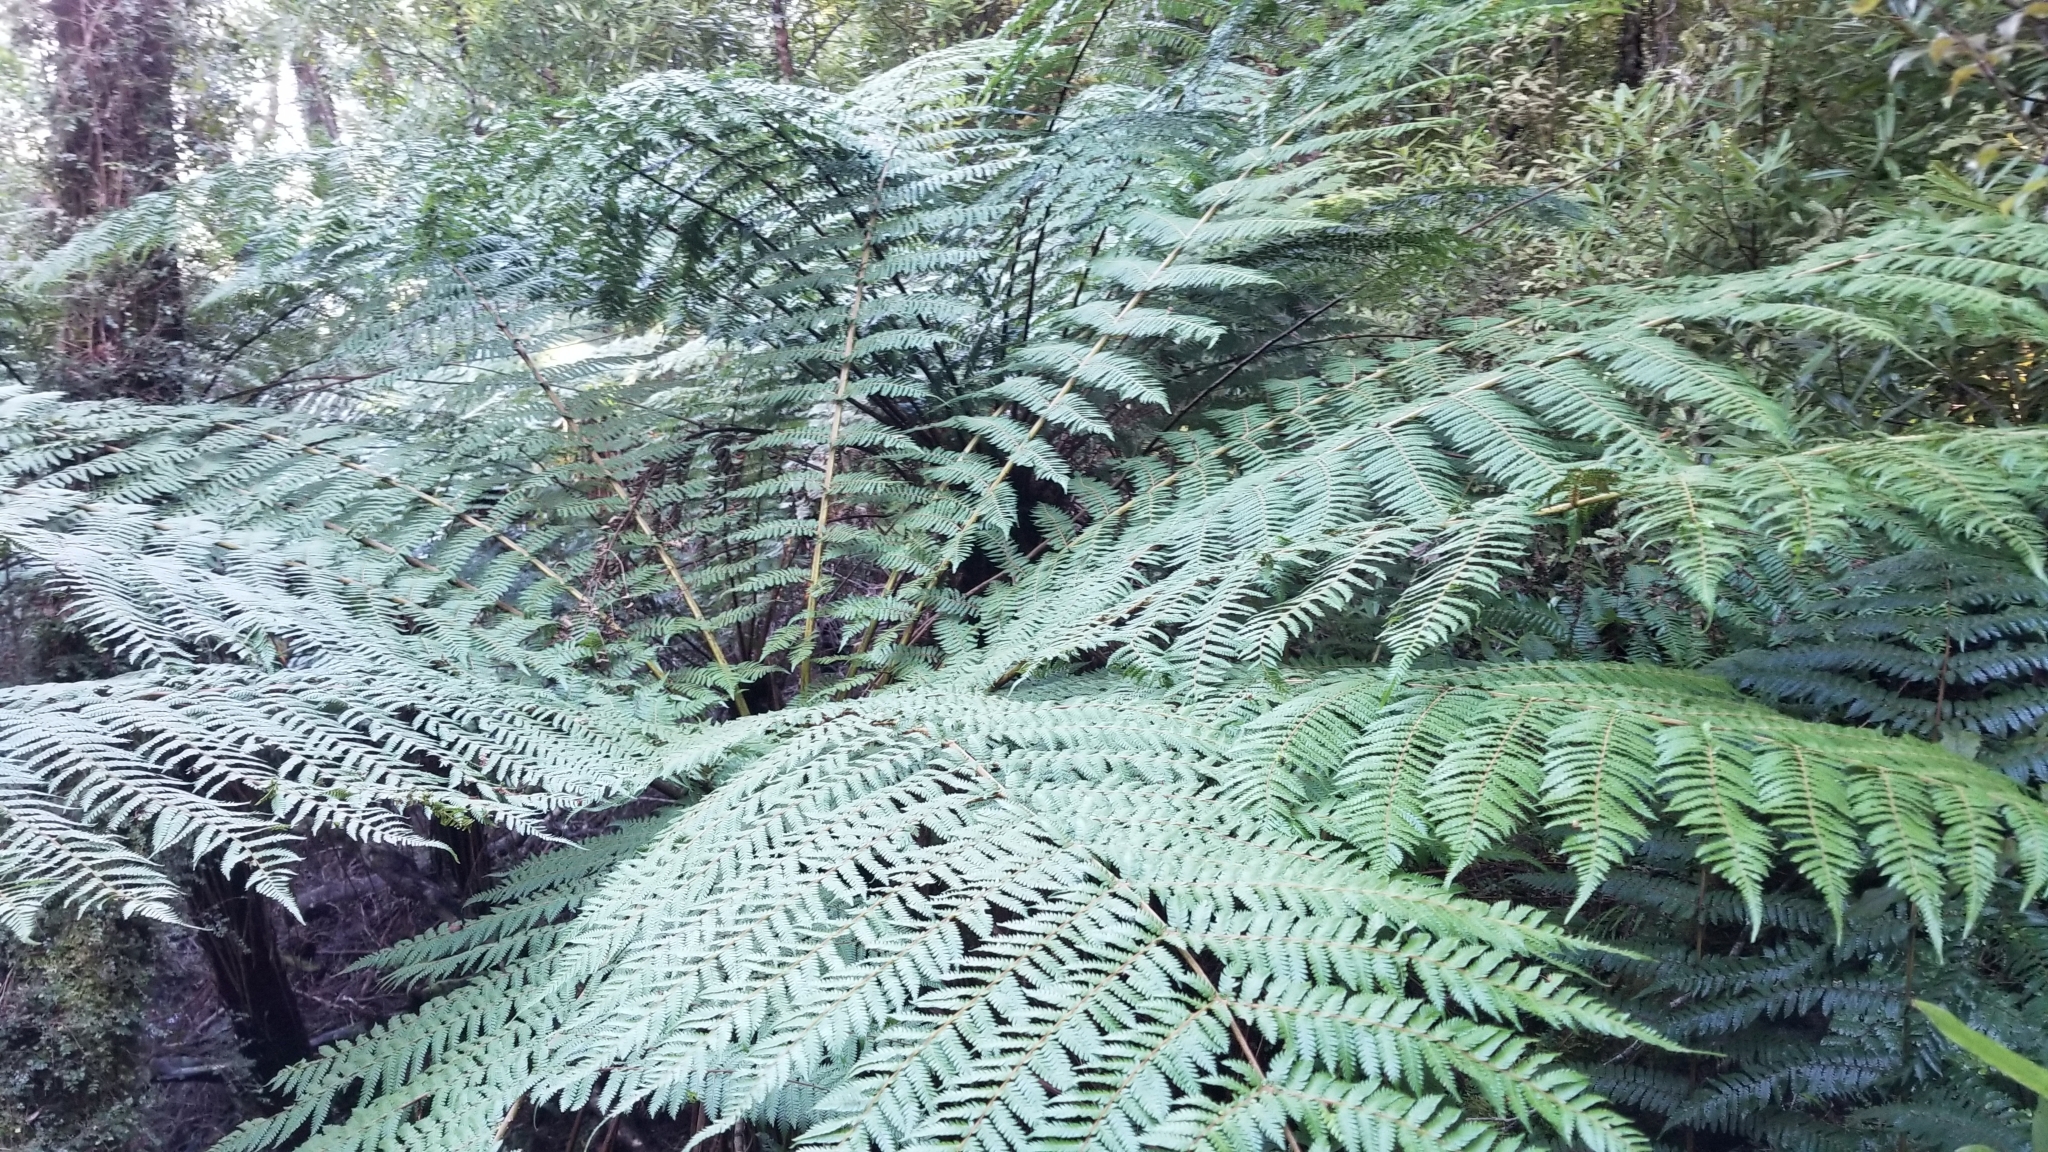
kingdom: Plantae
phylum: Tracheophyta
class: Polypodiopsida
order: Cyatheales
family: Cyatheaceae
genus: Alsophila
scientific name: Alsophila smithii
